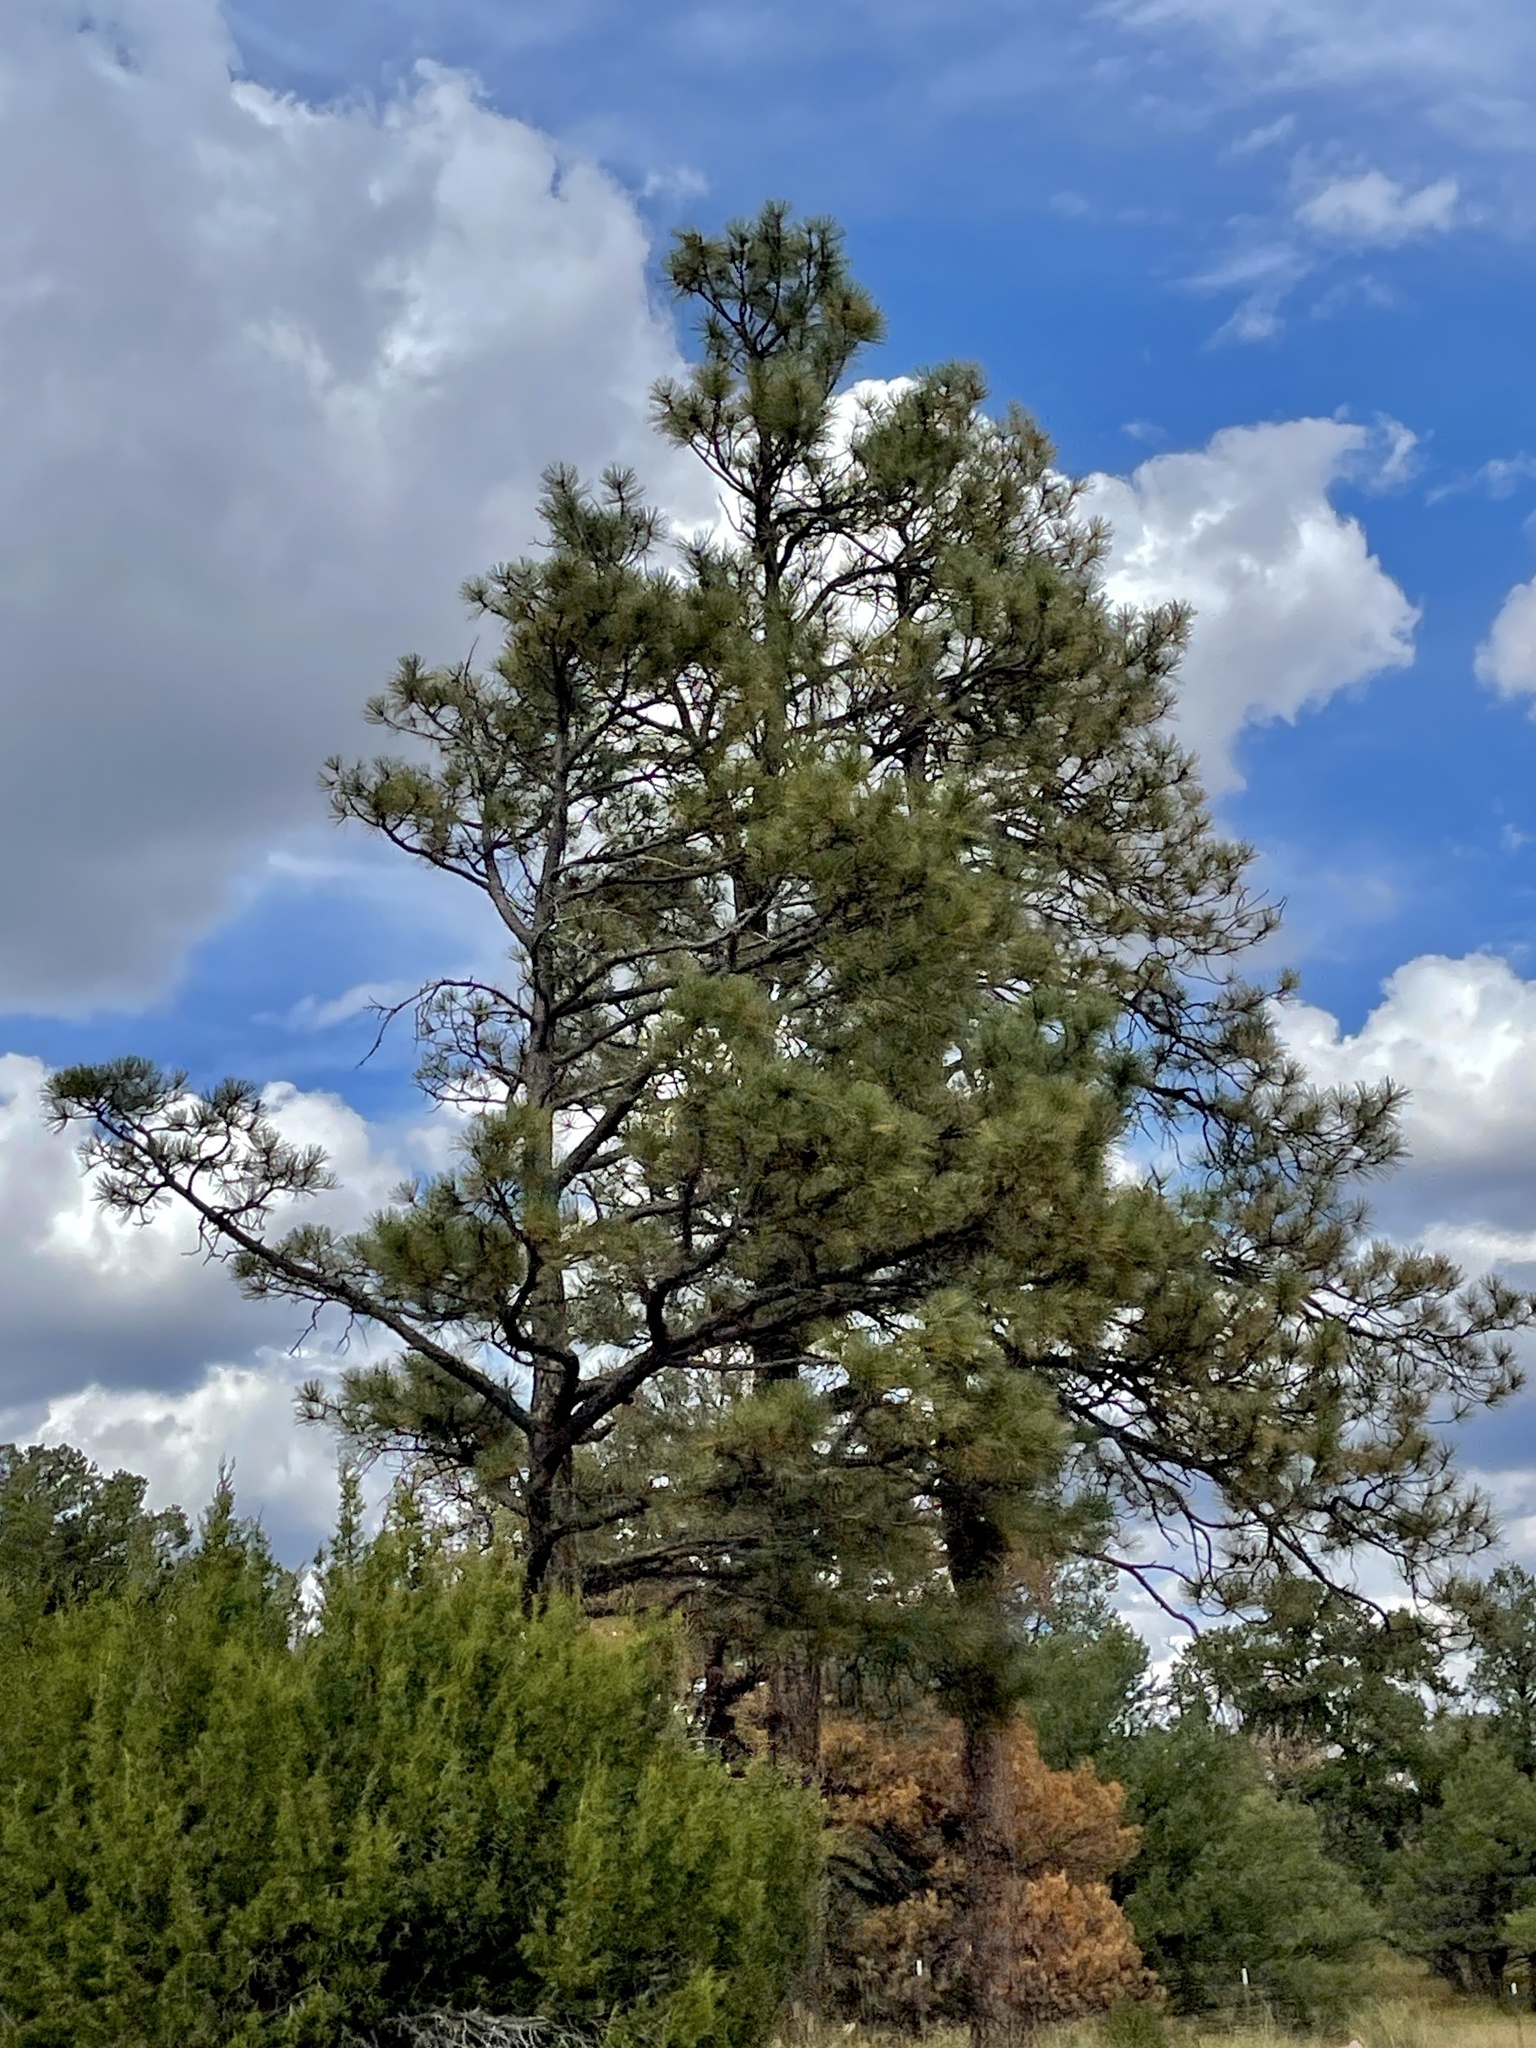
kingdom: Plantae
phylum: Tracheophyta
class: Pinopsida
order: Pinales
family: Pinaceae
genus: Pinus
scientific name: Pinus ponderosa
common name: Western yellow-pine
